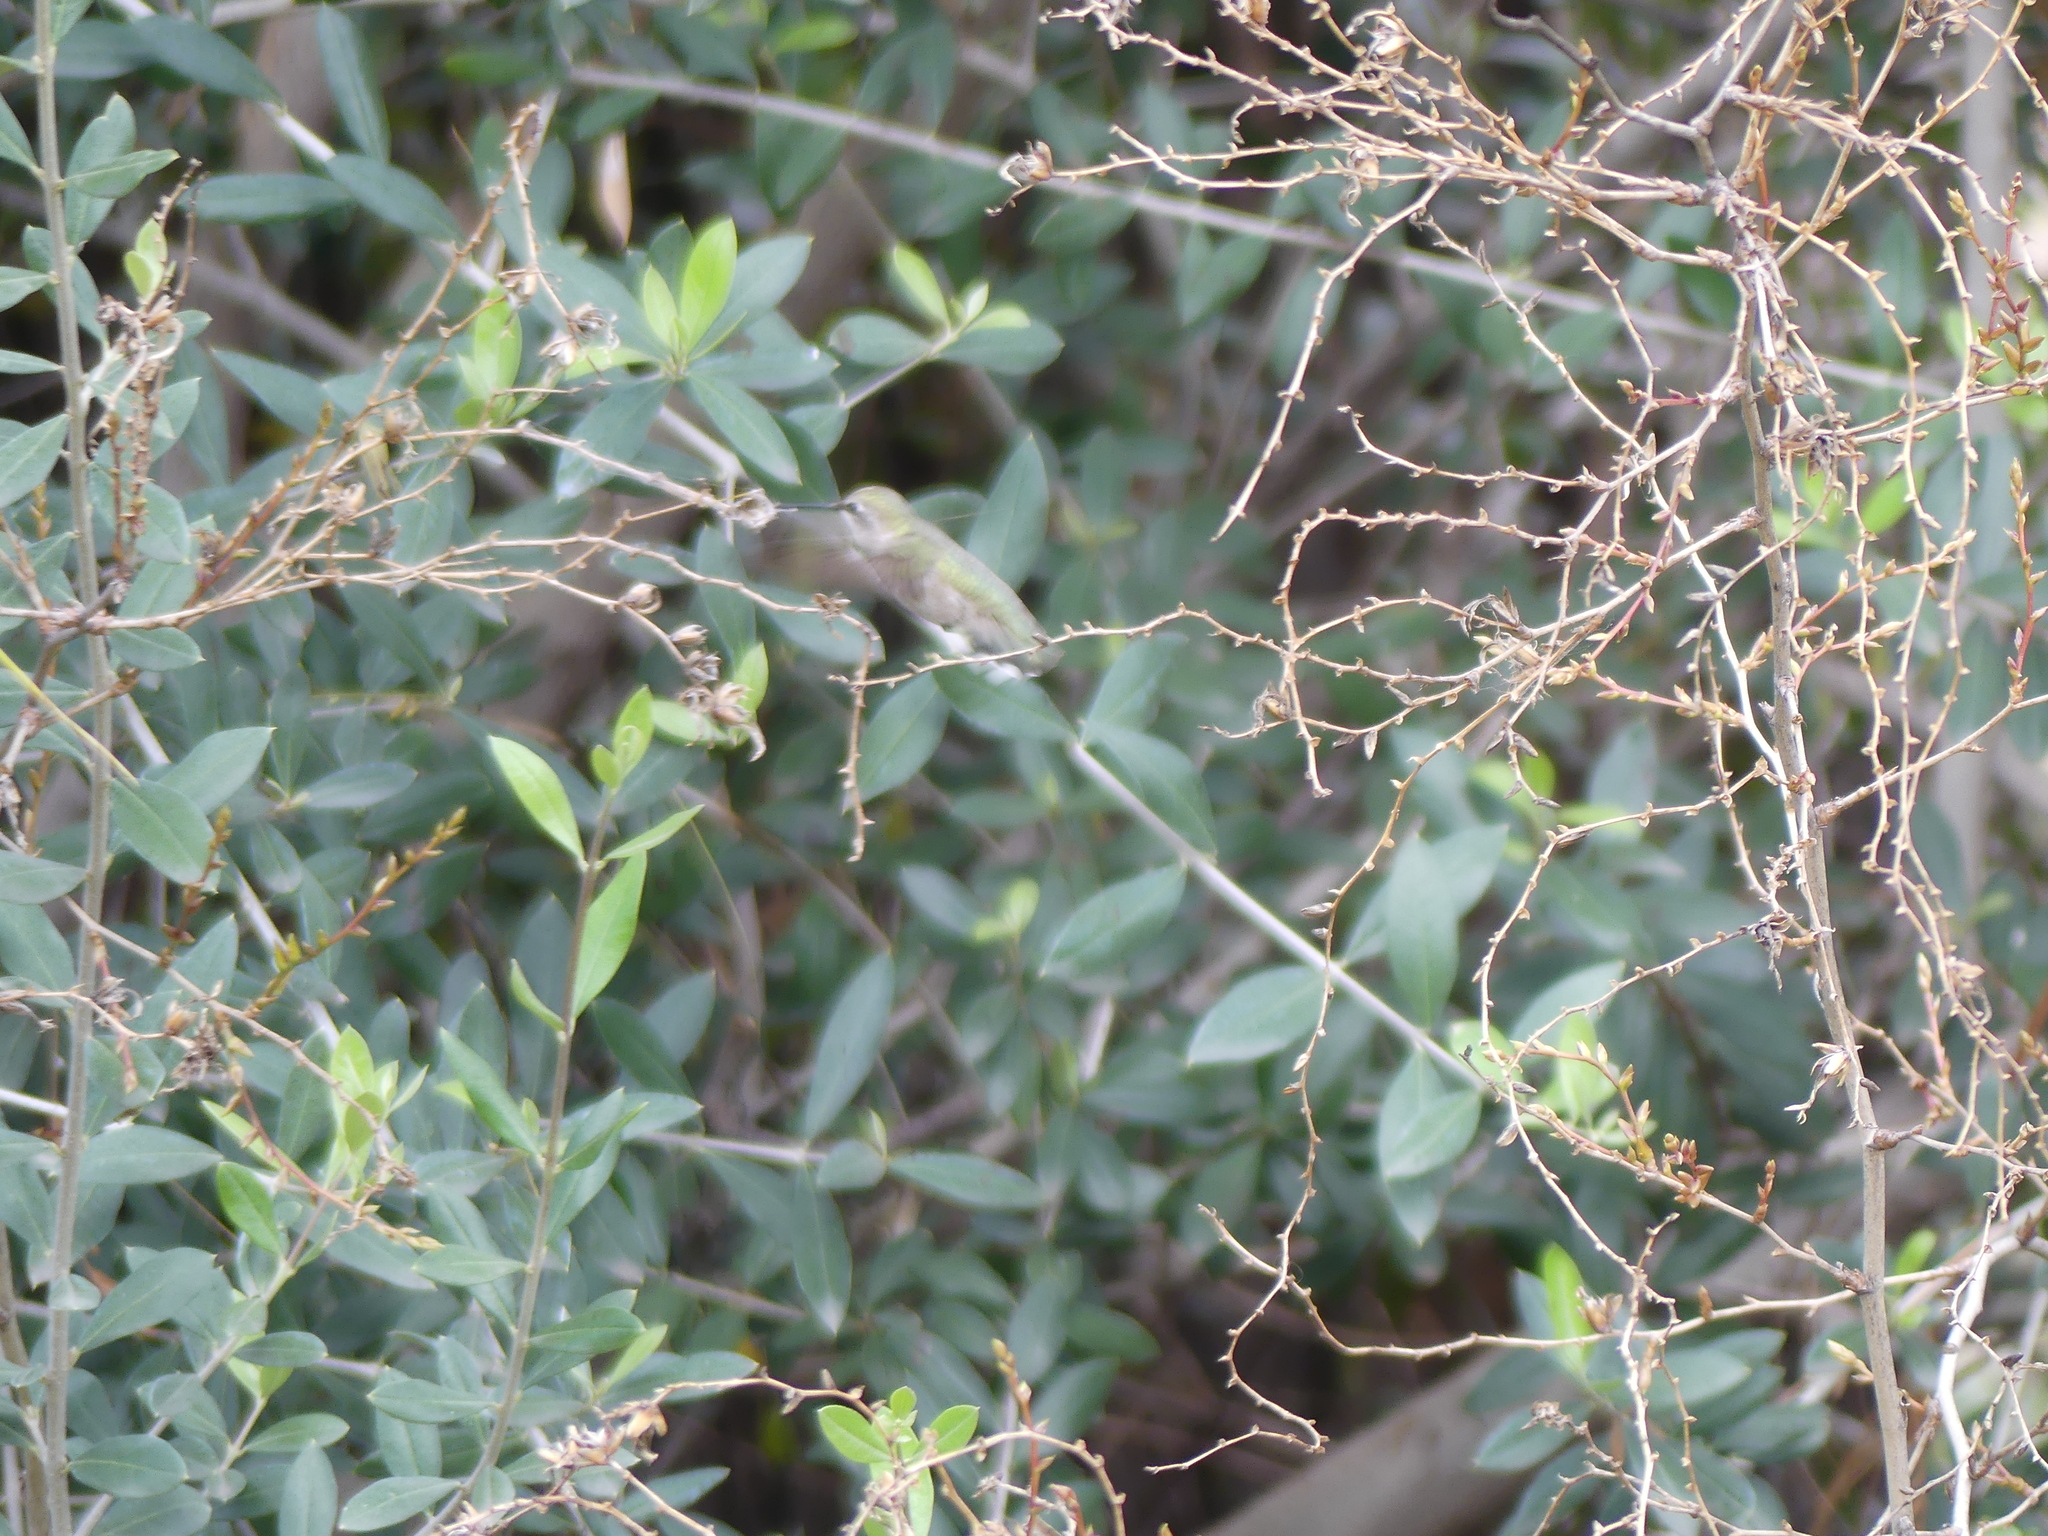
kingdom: Animalia
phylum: Chordata
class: Aves
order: Apodiformes
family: Trochilidae
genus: Calypte
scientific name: Calypte costae
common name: Costa's hummingbird
